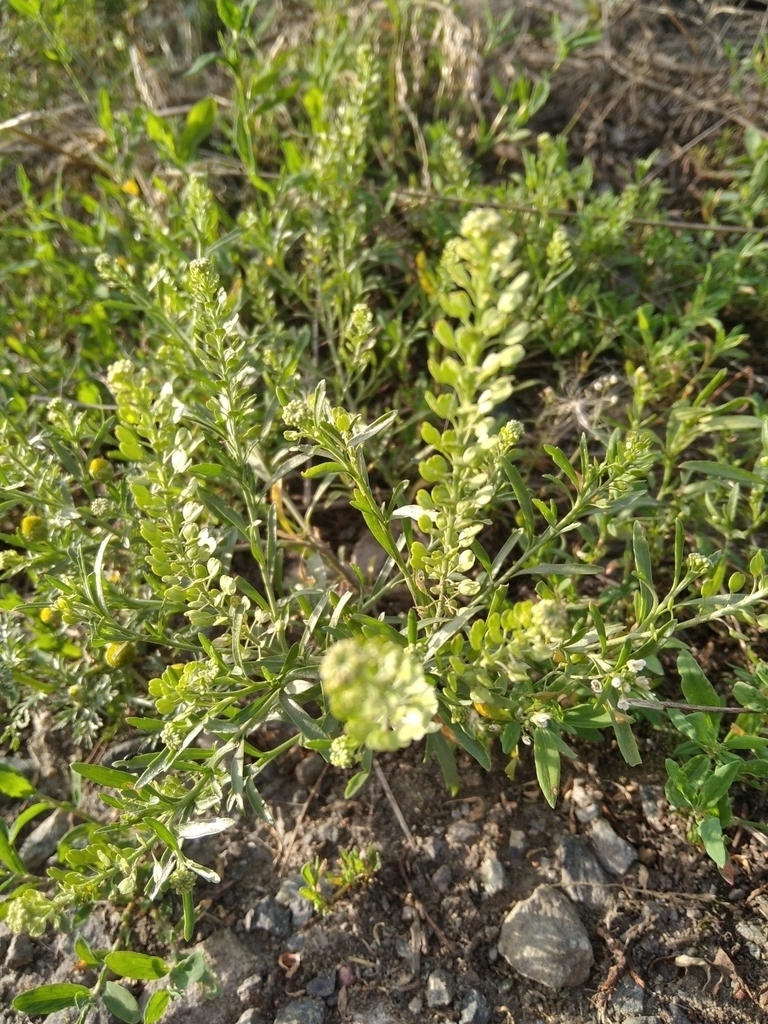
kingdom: Plantae
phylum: Tracheophyta
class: Magnoliopsida
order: Brassicales
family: Brassicaceae
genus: Lepidium
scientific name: Lepidium densiflorum
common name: Miner's pepperwort
